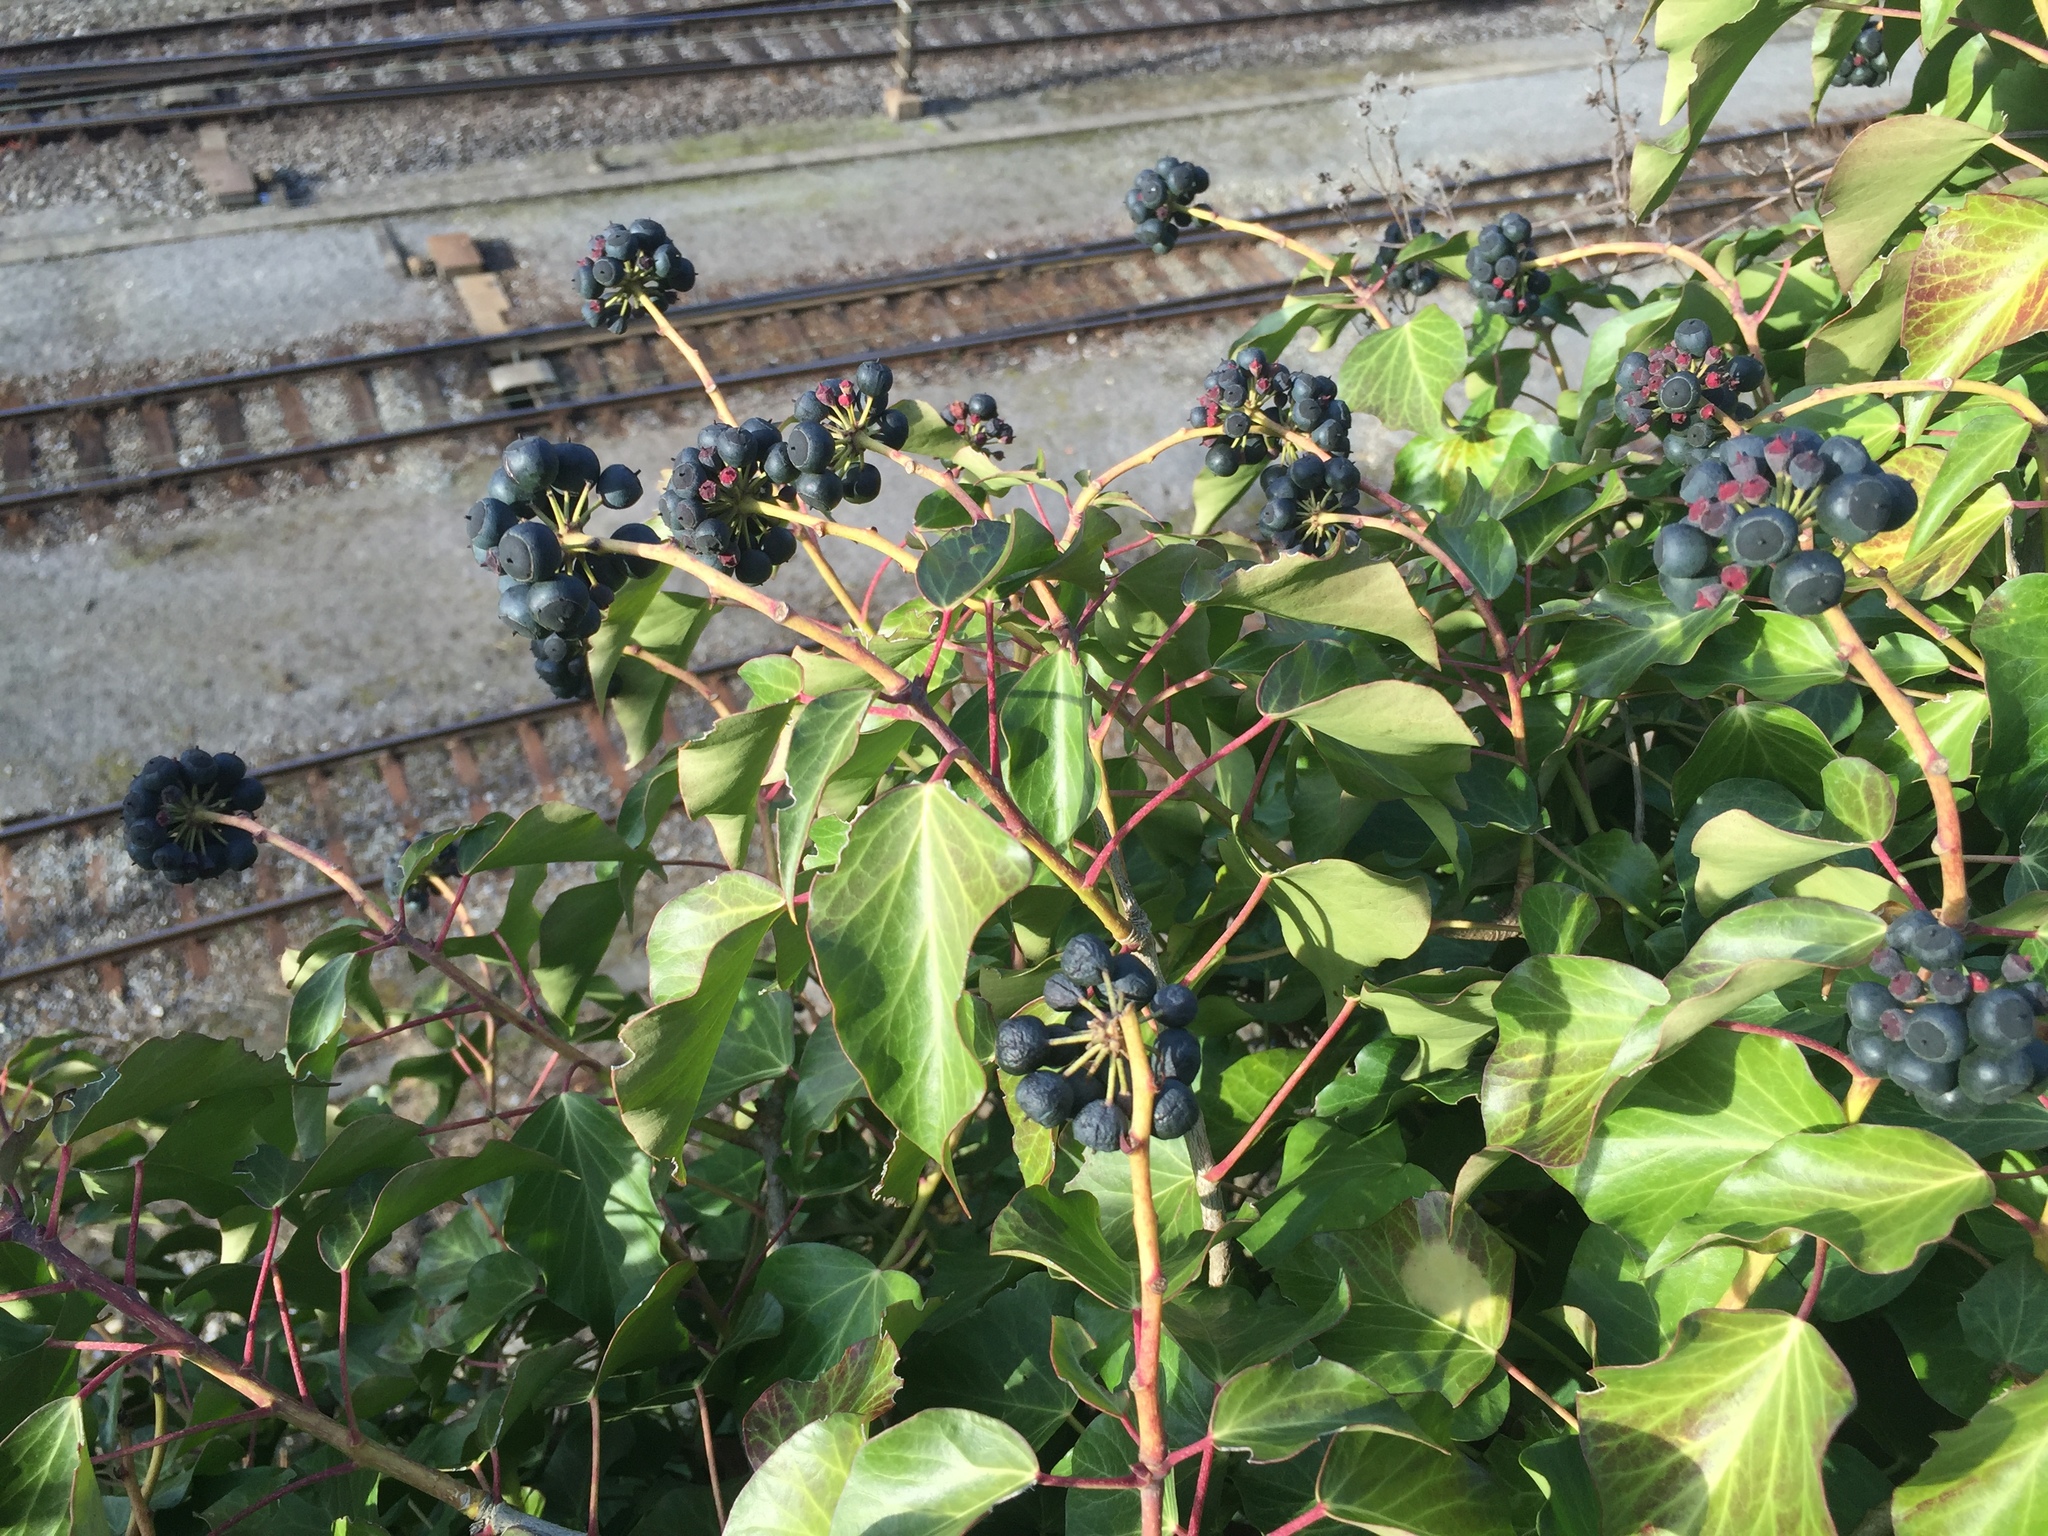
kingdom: Plantae
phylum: Tracheophyta
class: Magnoliopsida
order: Apiales
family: Araliaceae
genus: Hedera
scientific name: Hedera helix
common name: Ivy
